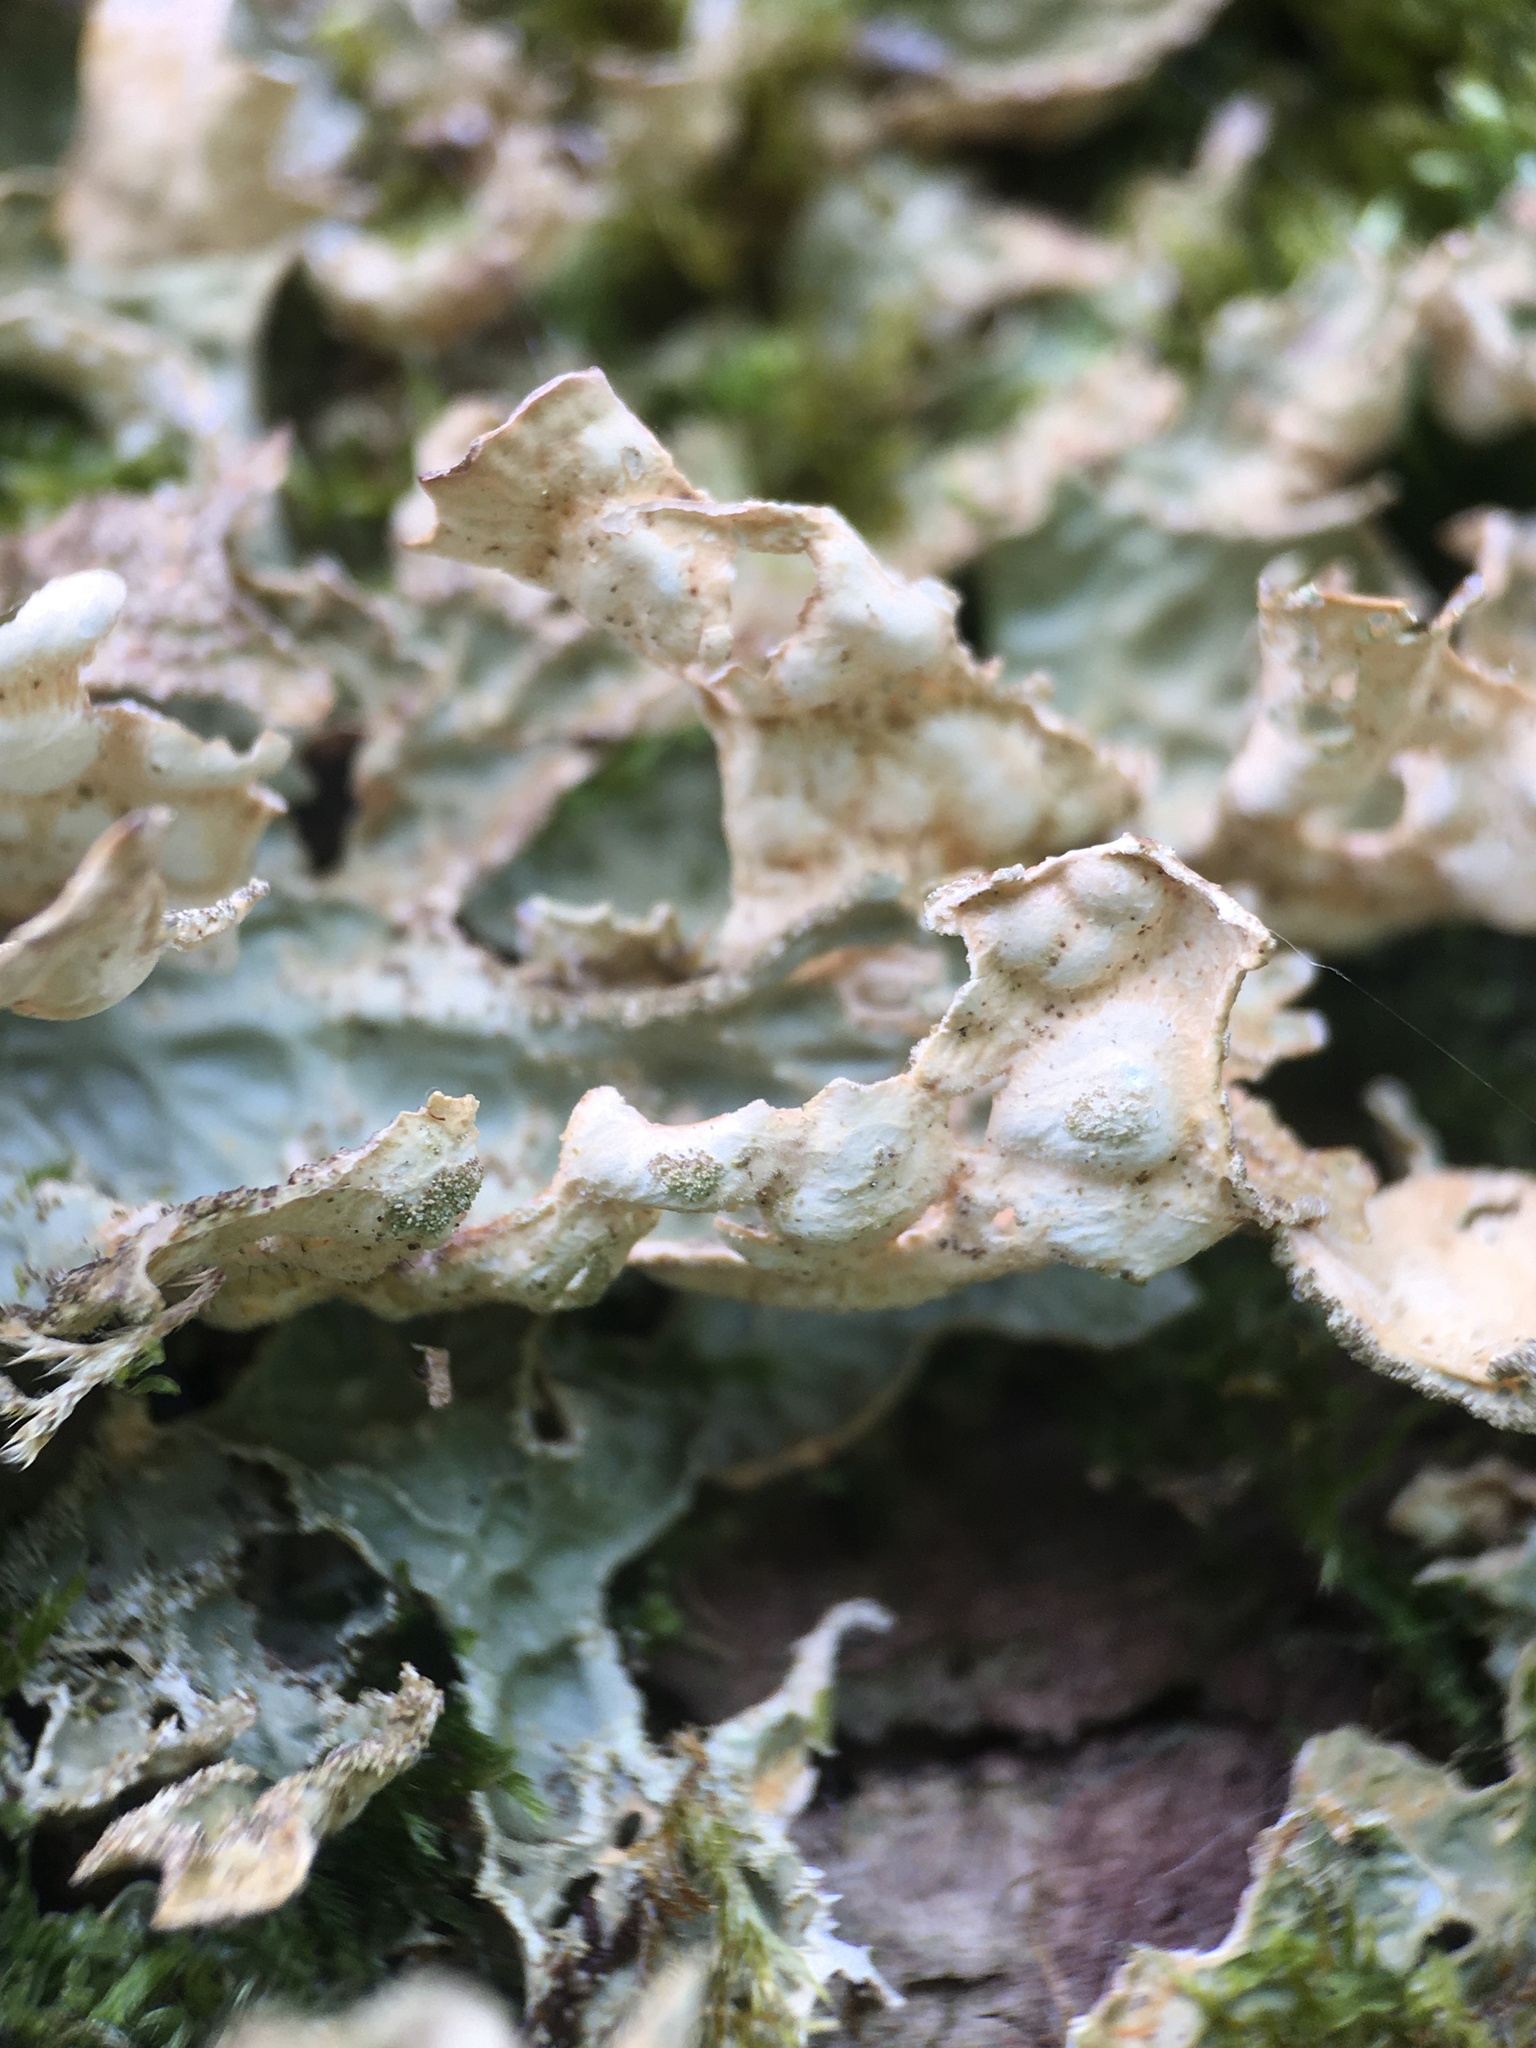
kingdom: Fungi
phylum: Ascomycota
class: Lecanoromycetes
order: Peltigerales
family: Lobariaceae
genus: Lobaria
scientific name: Lobaria pulmonaria
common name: Lungwort
